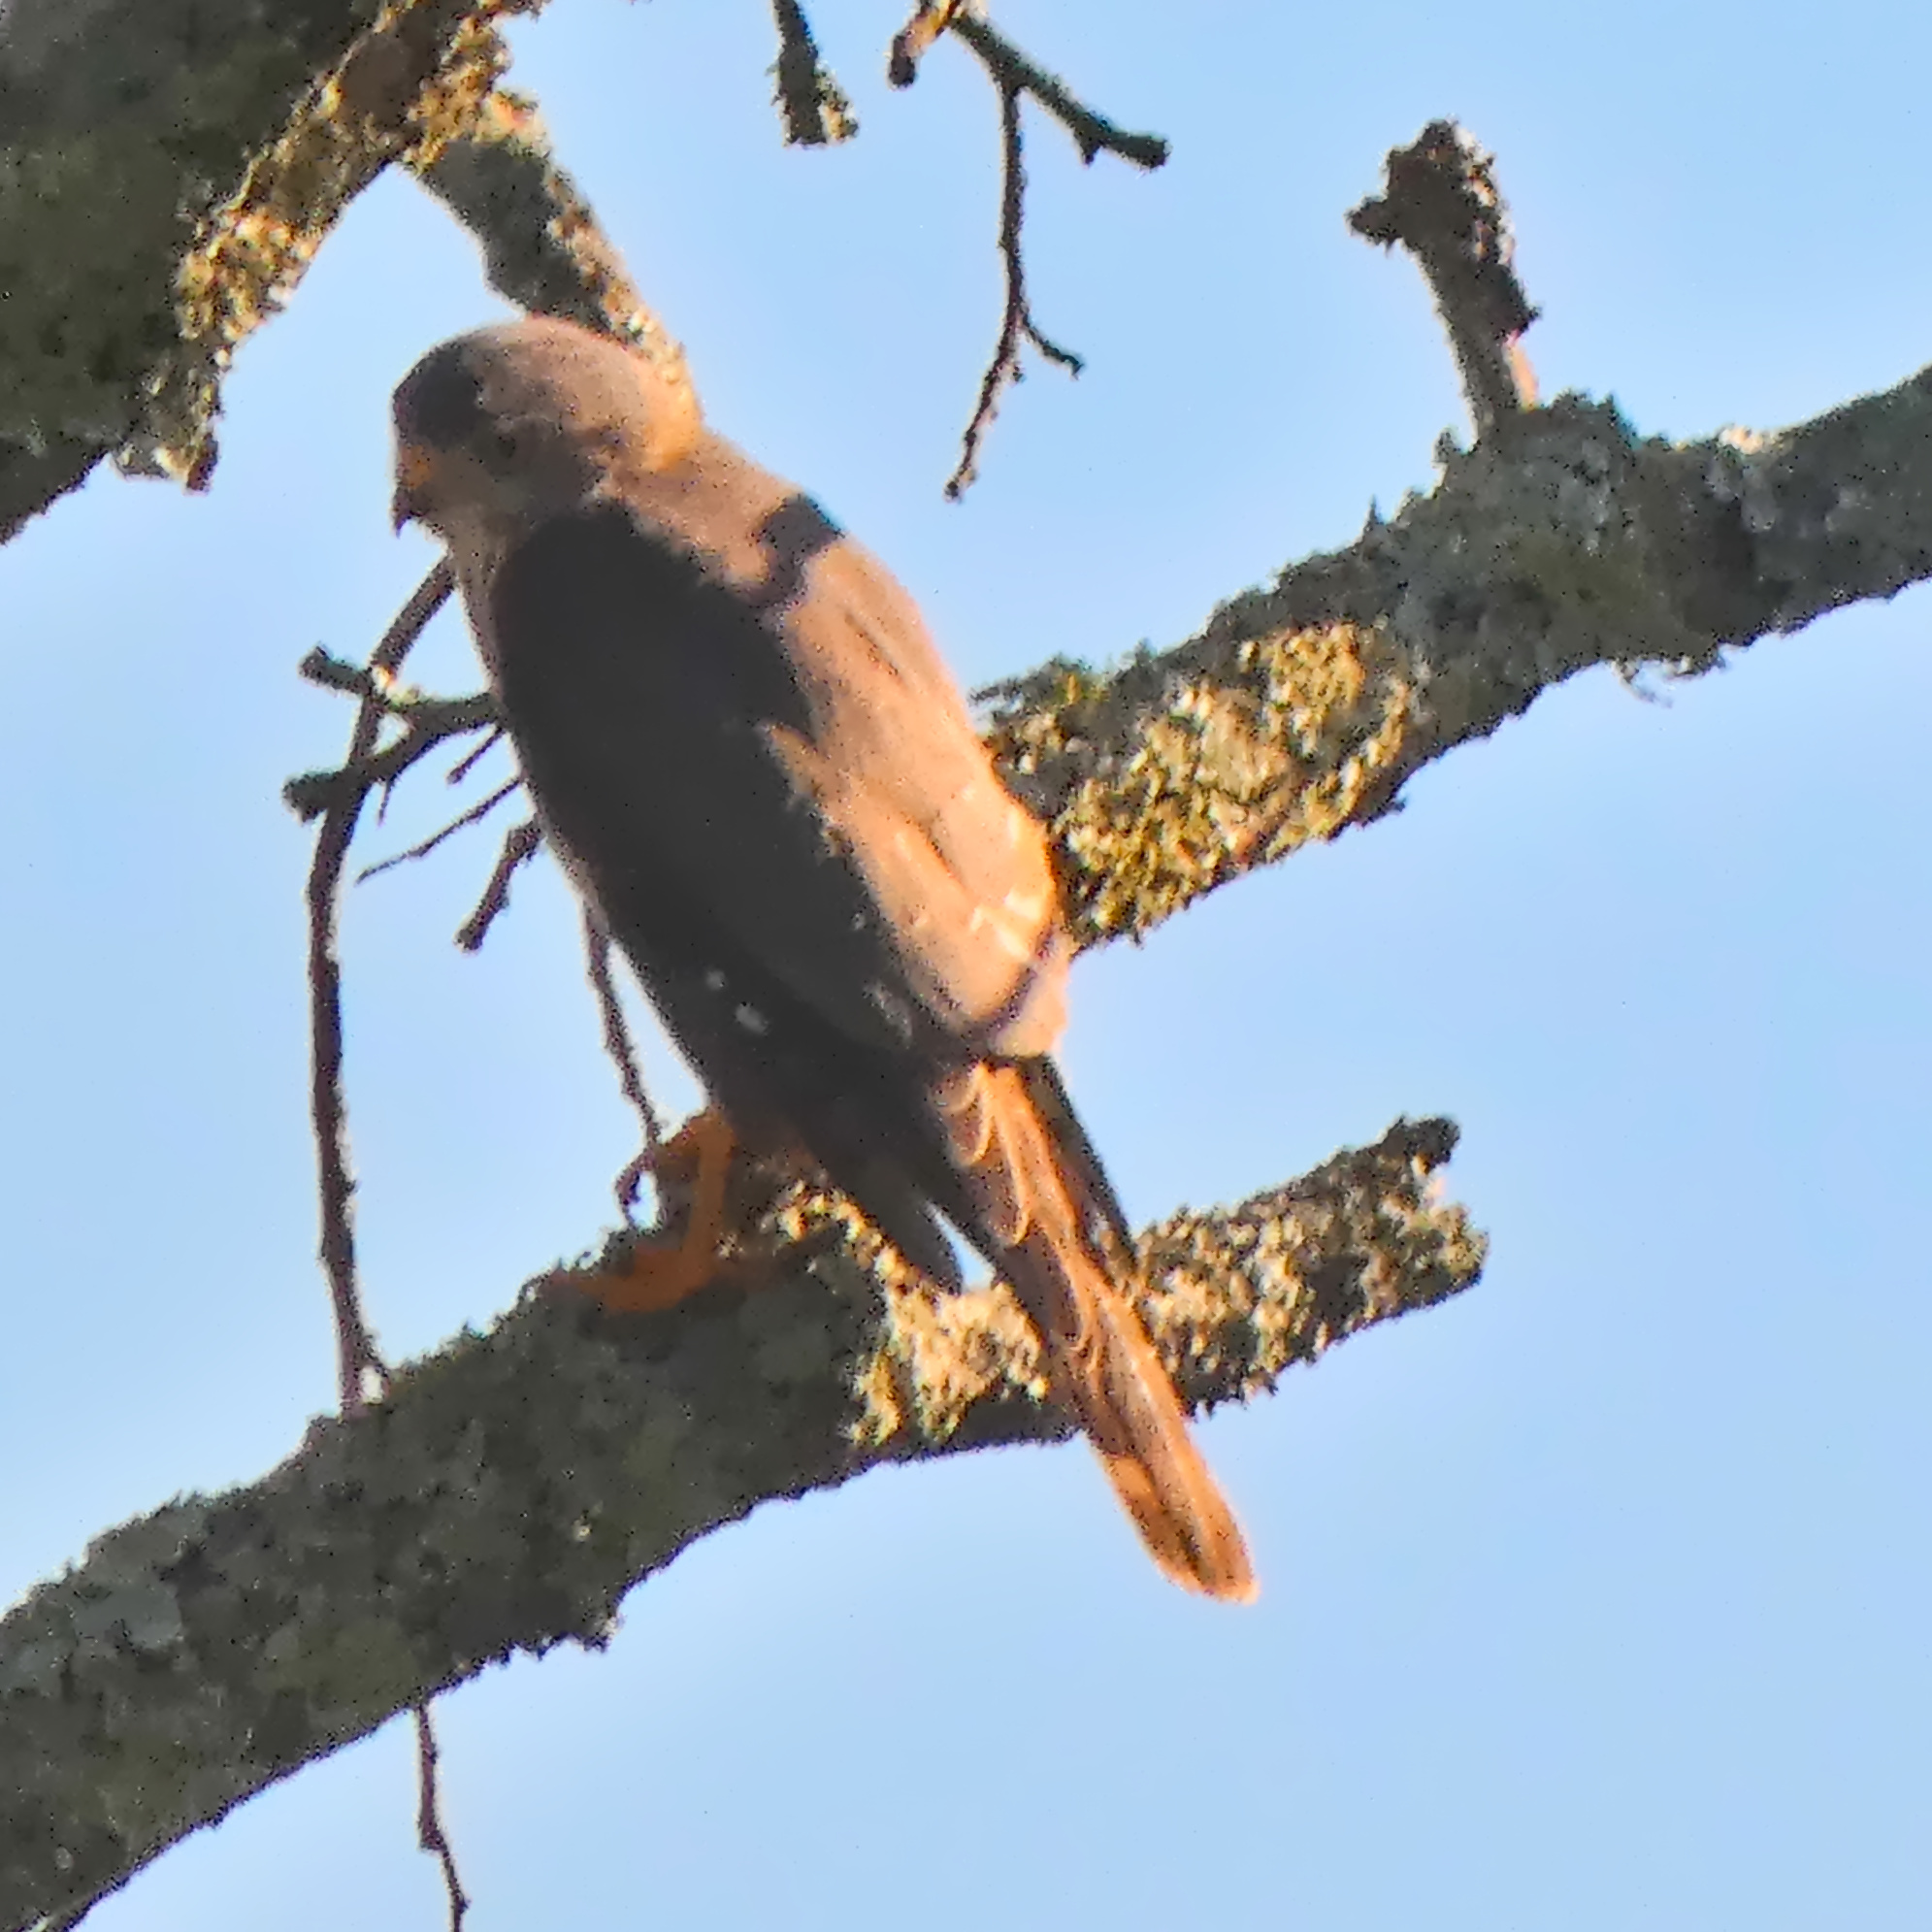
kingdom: Animalia
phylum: Chordata
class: Aves
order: Accipitriformes
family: Accipitridae
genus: Accipiter
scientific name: Accipiter minullus
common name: Little sparrowhawk
